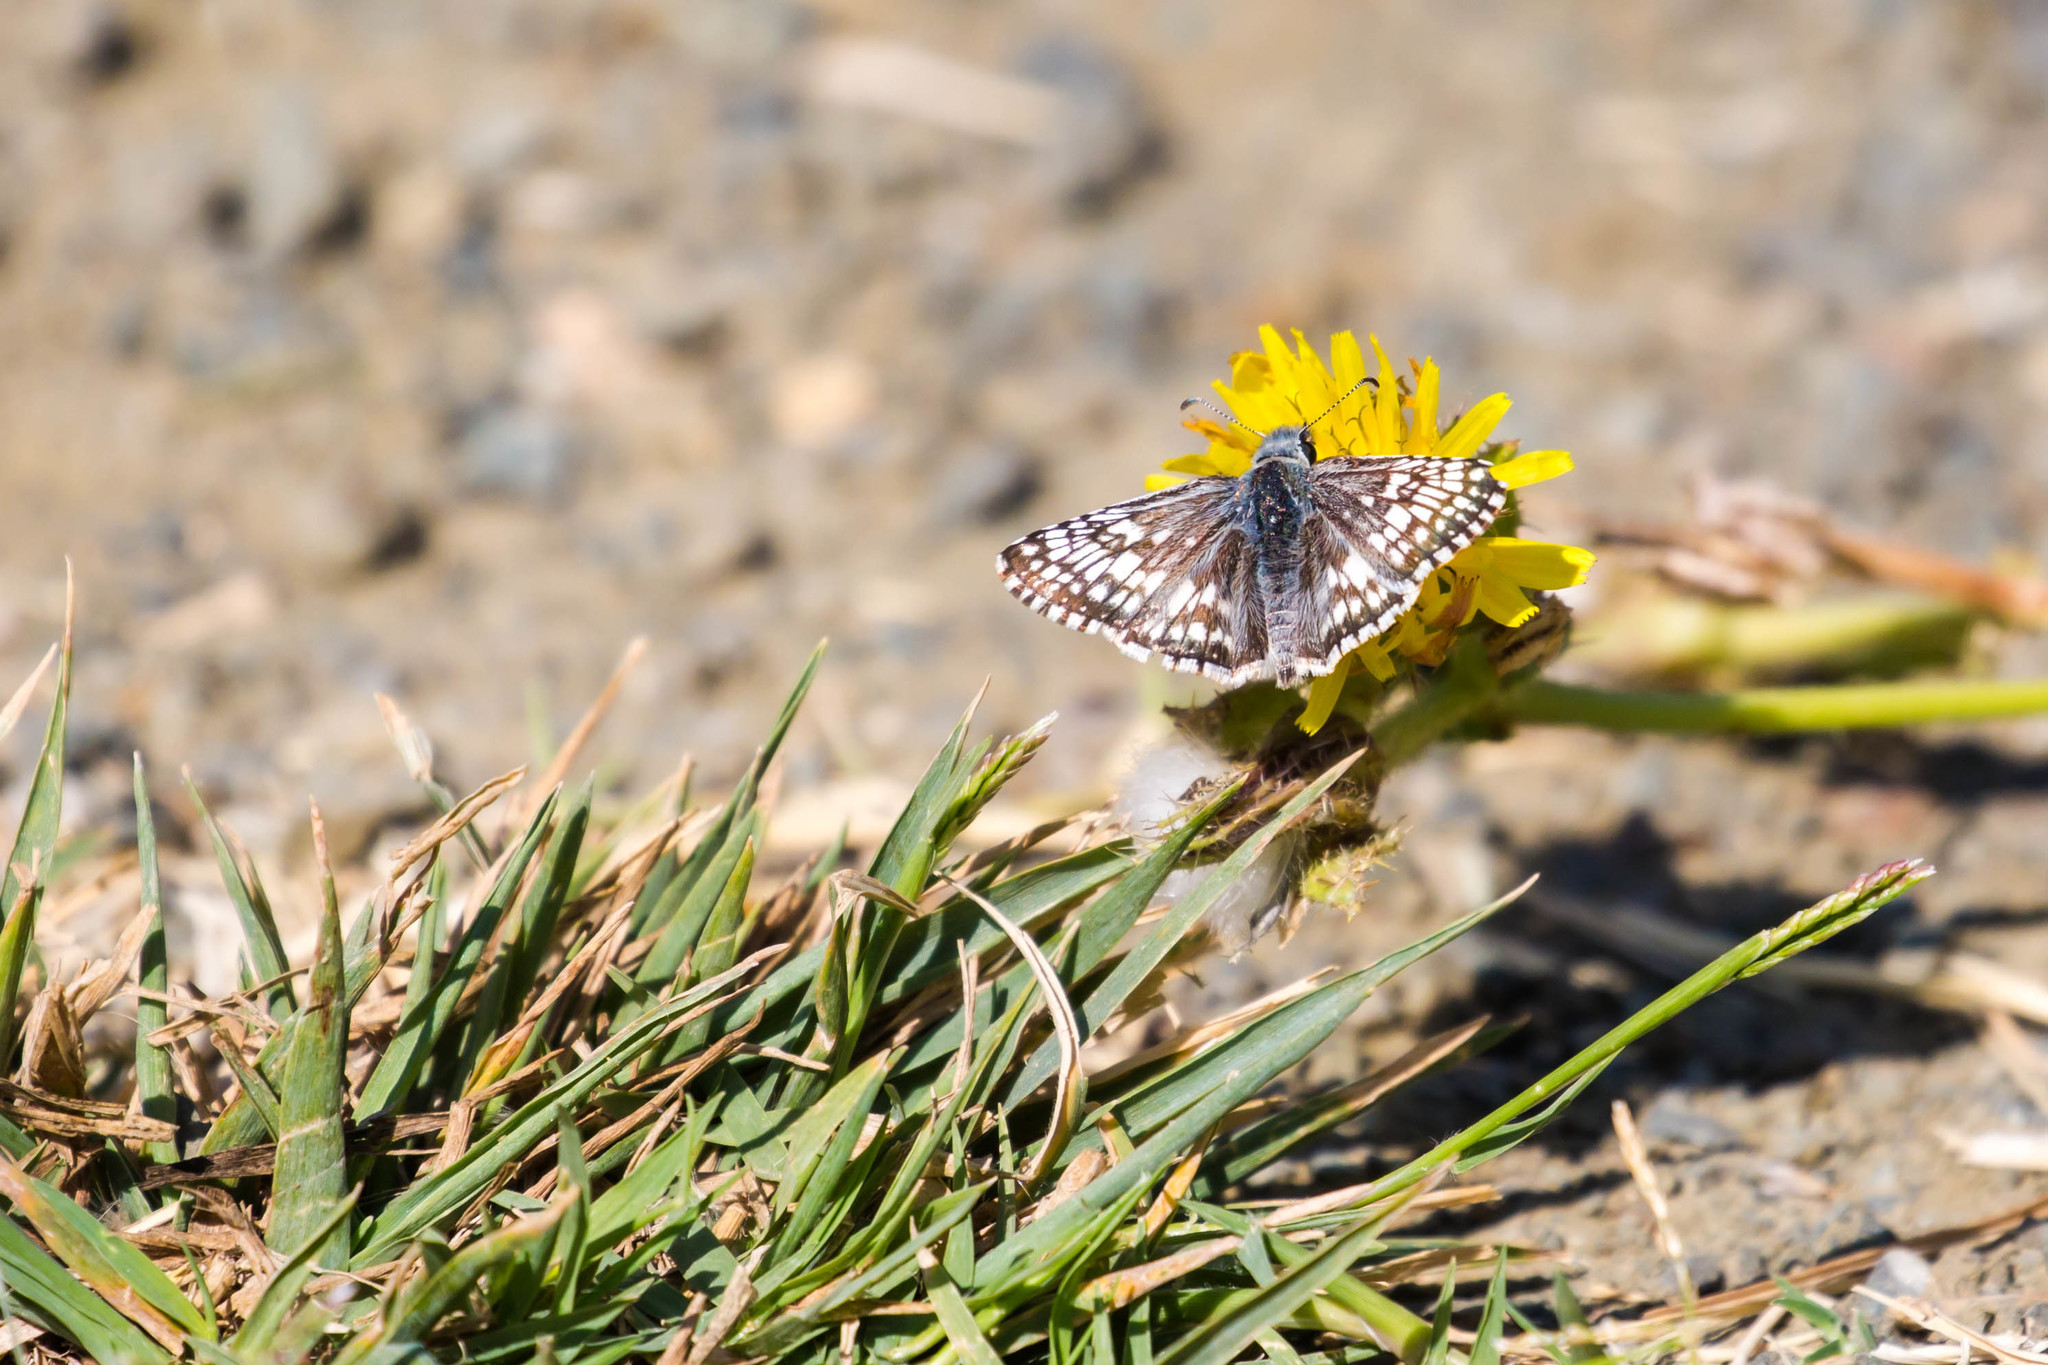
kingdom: Animalia
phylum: Arthropoda
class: Insecta
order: Lepidoptera
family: Hesperiidae
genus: Burnsius
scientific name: Burnsius communis
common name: Common checkered-skipper
